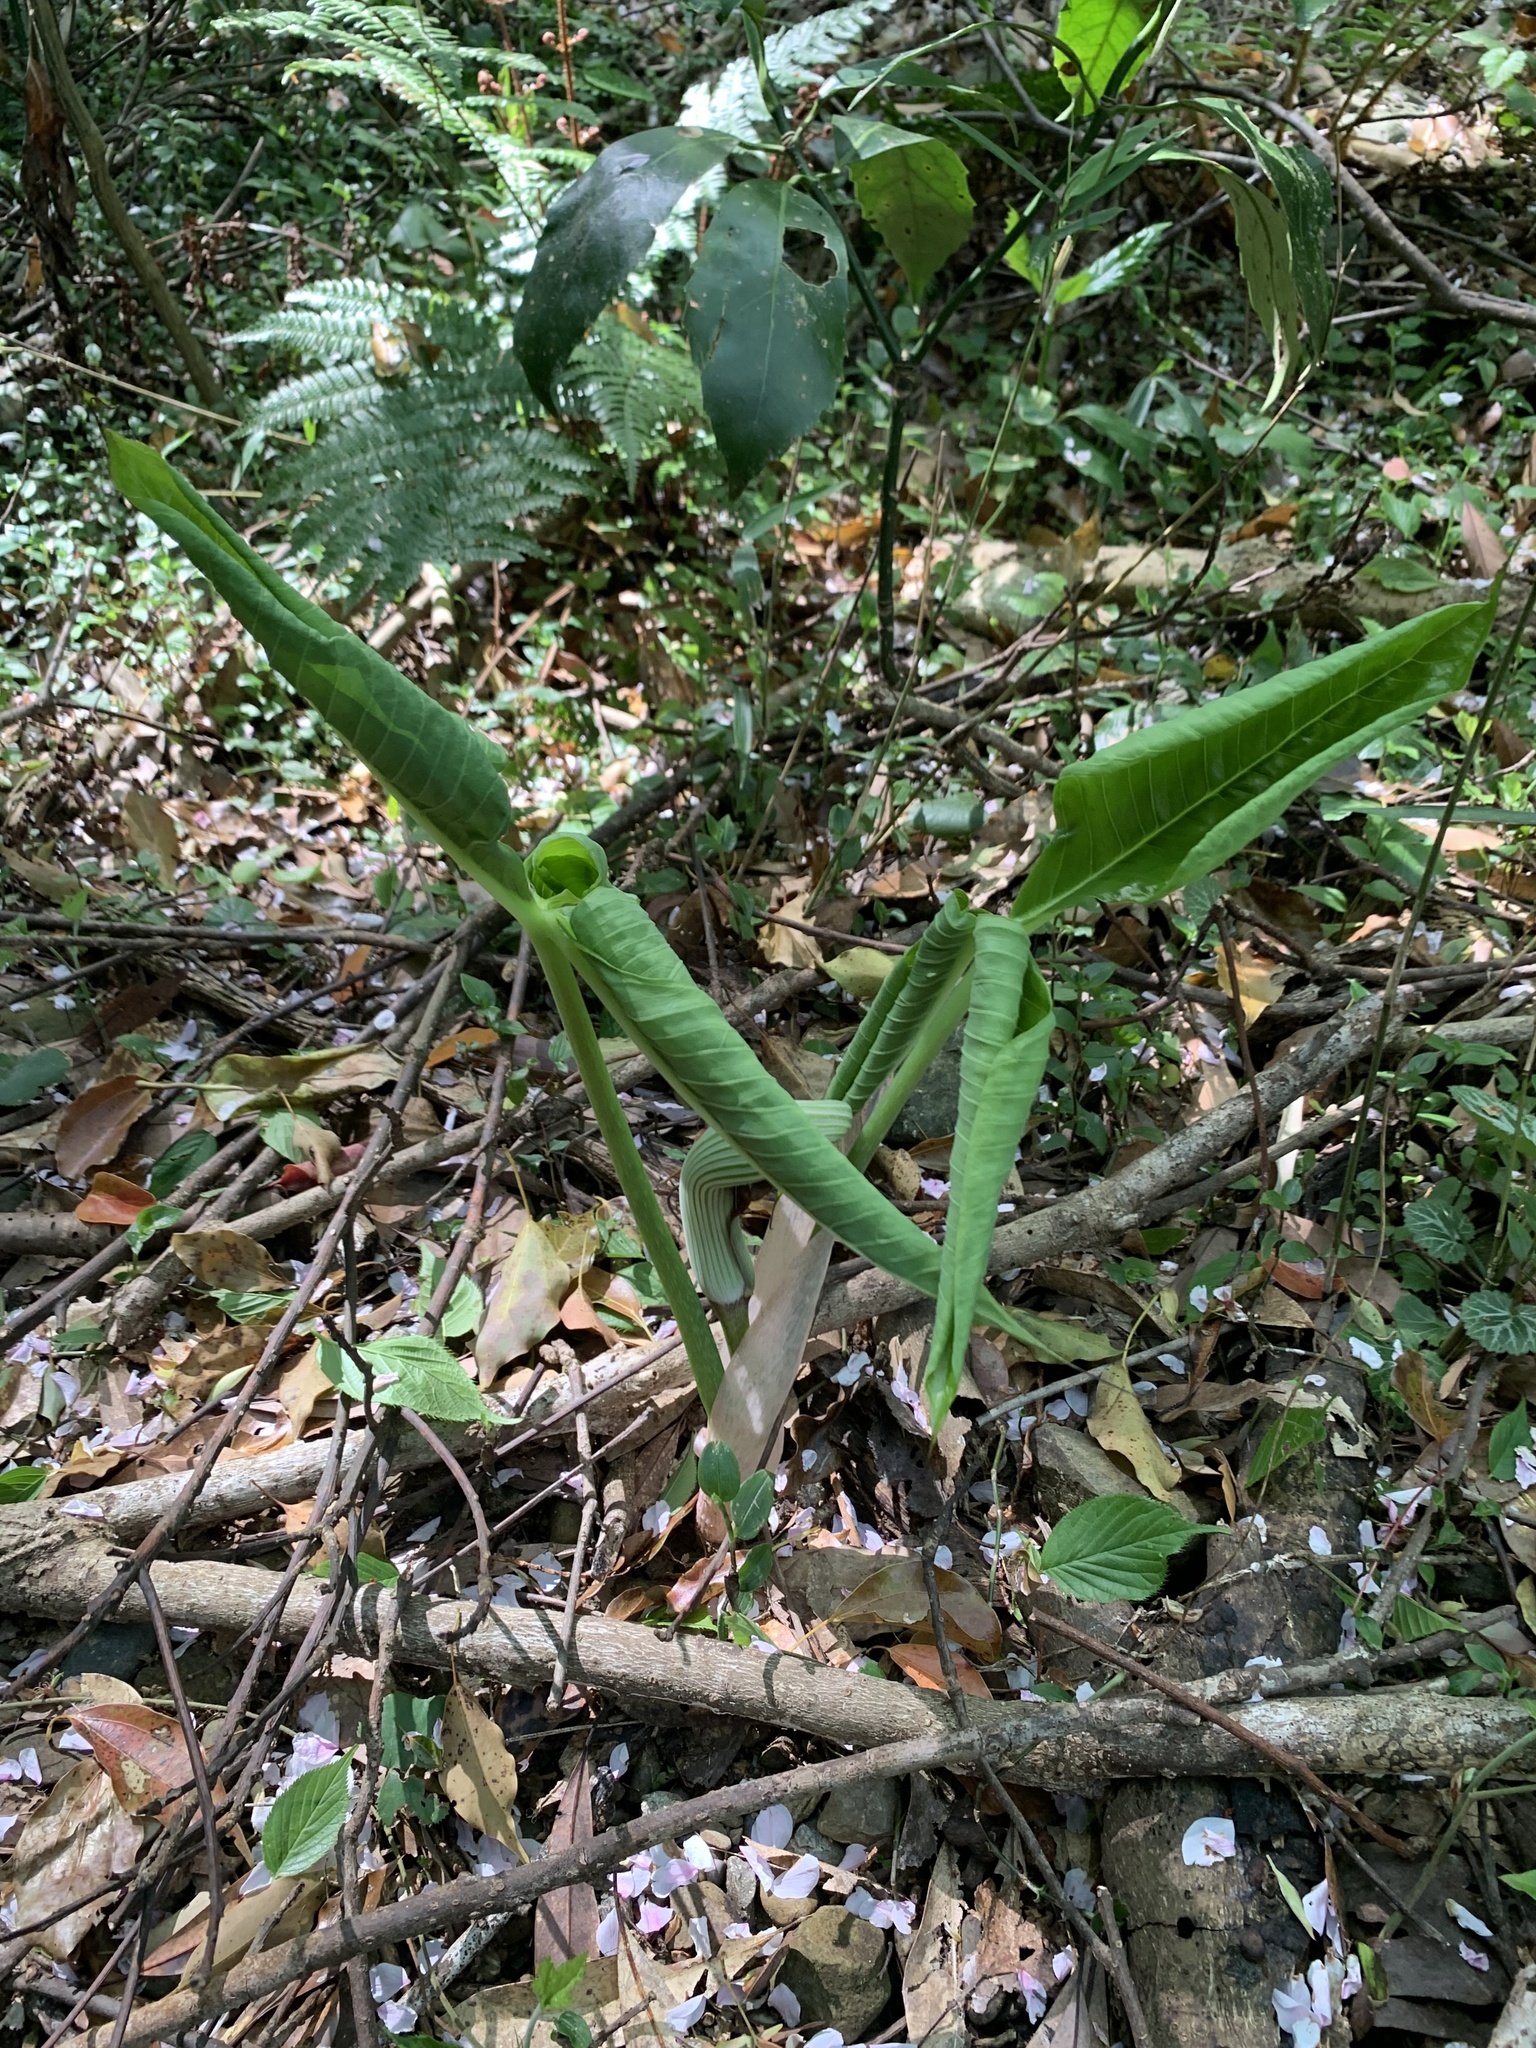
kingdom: Plantae
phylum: Tracheophyta
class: Liliopsida
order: Alismatales
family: Araceae
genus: Arisaema
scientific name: Arisaema ringens
